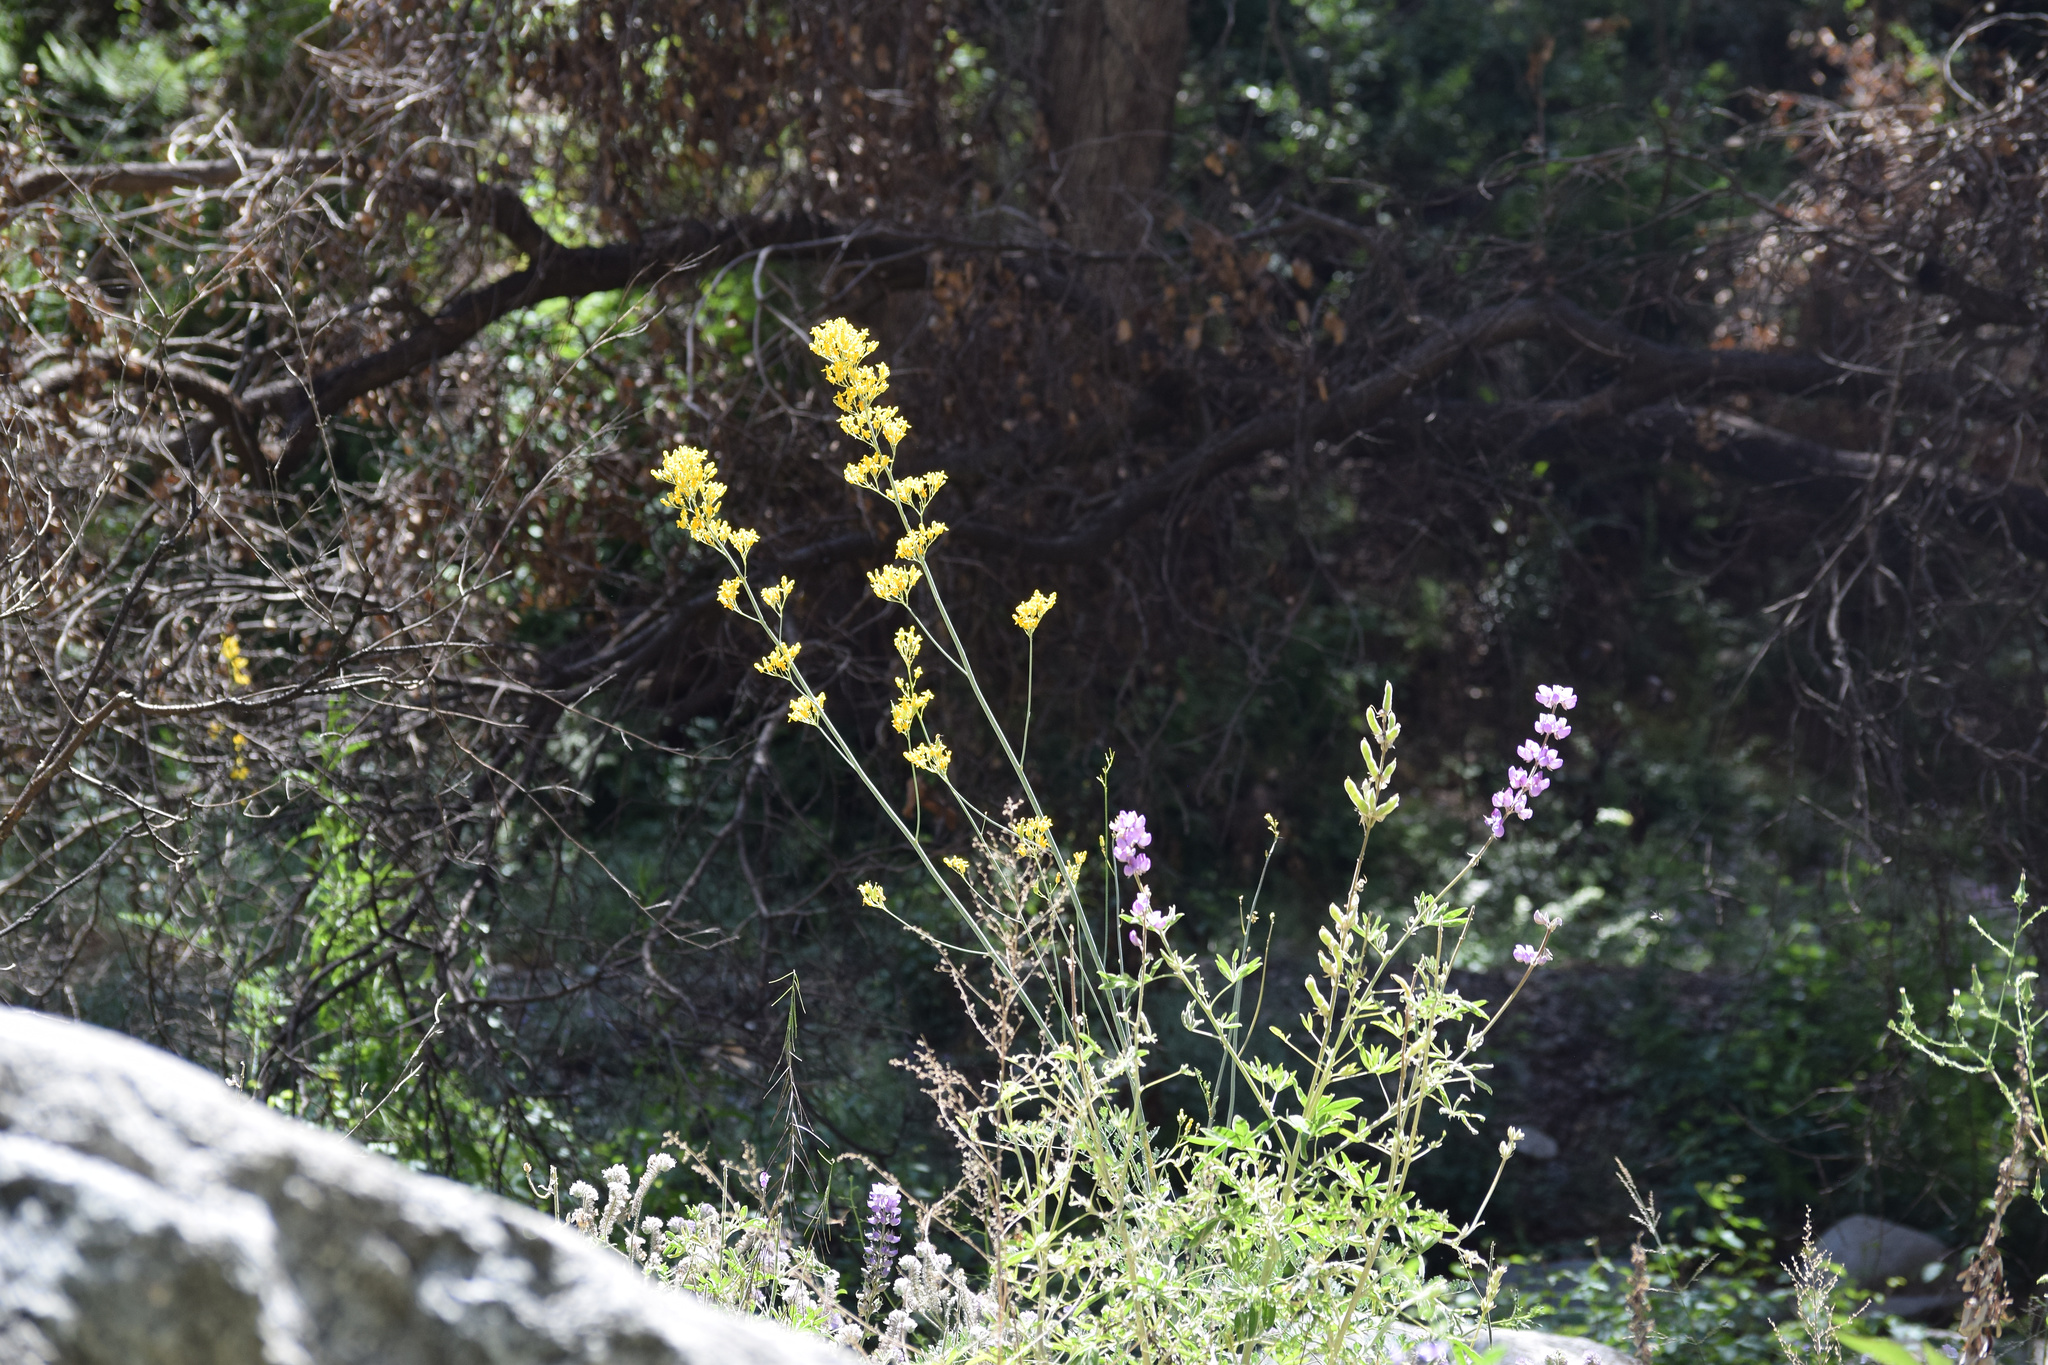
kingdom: Plantae
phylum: Tracheophyta
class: Magnoliopsida
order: Ranunculales
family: Papaveraceae
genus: Ehrendorferia
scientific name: Ehrendorferia chrysantha
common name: Golden eardrops
